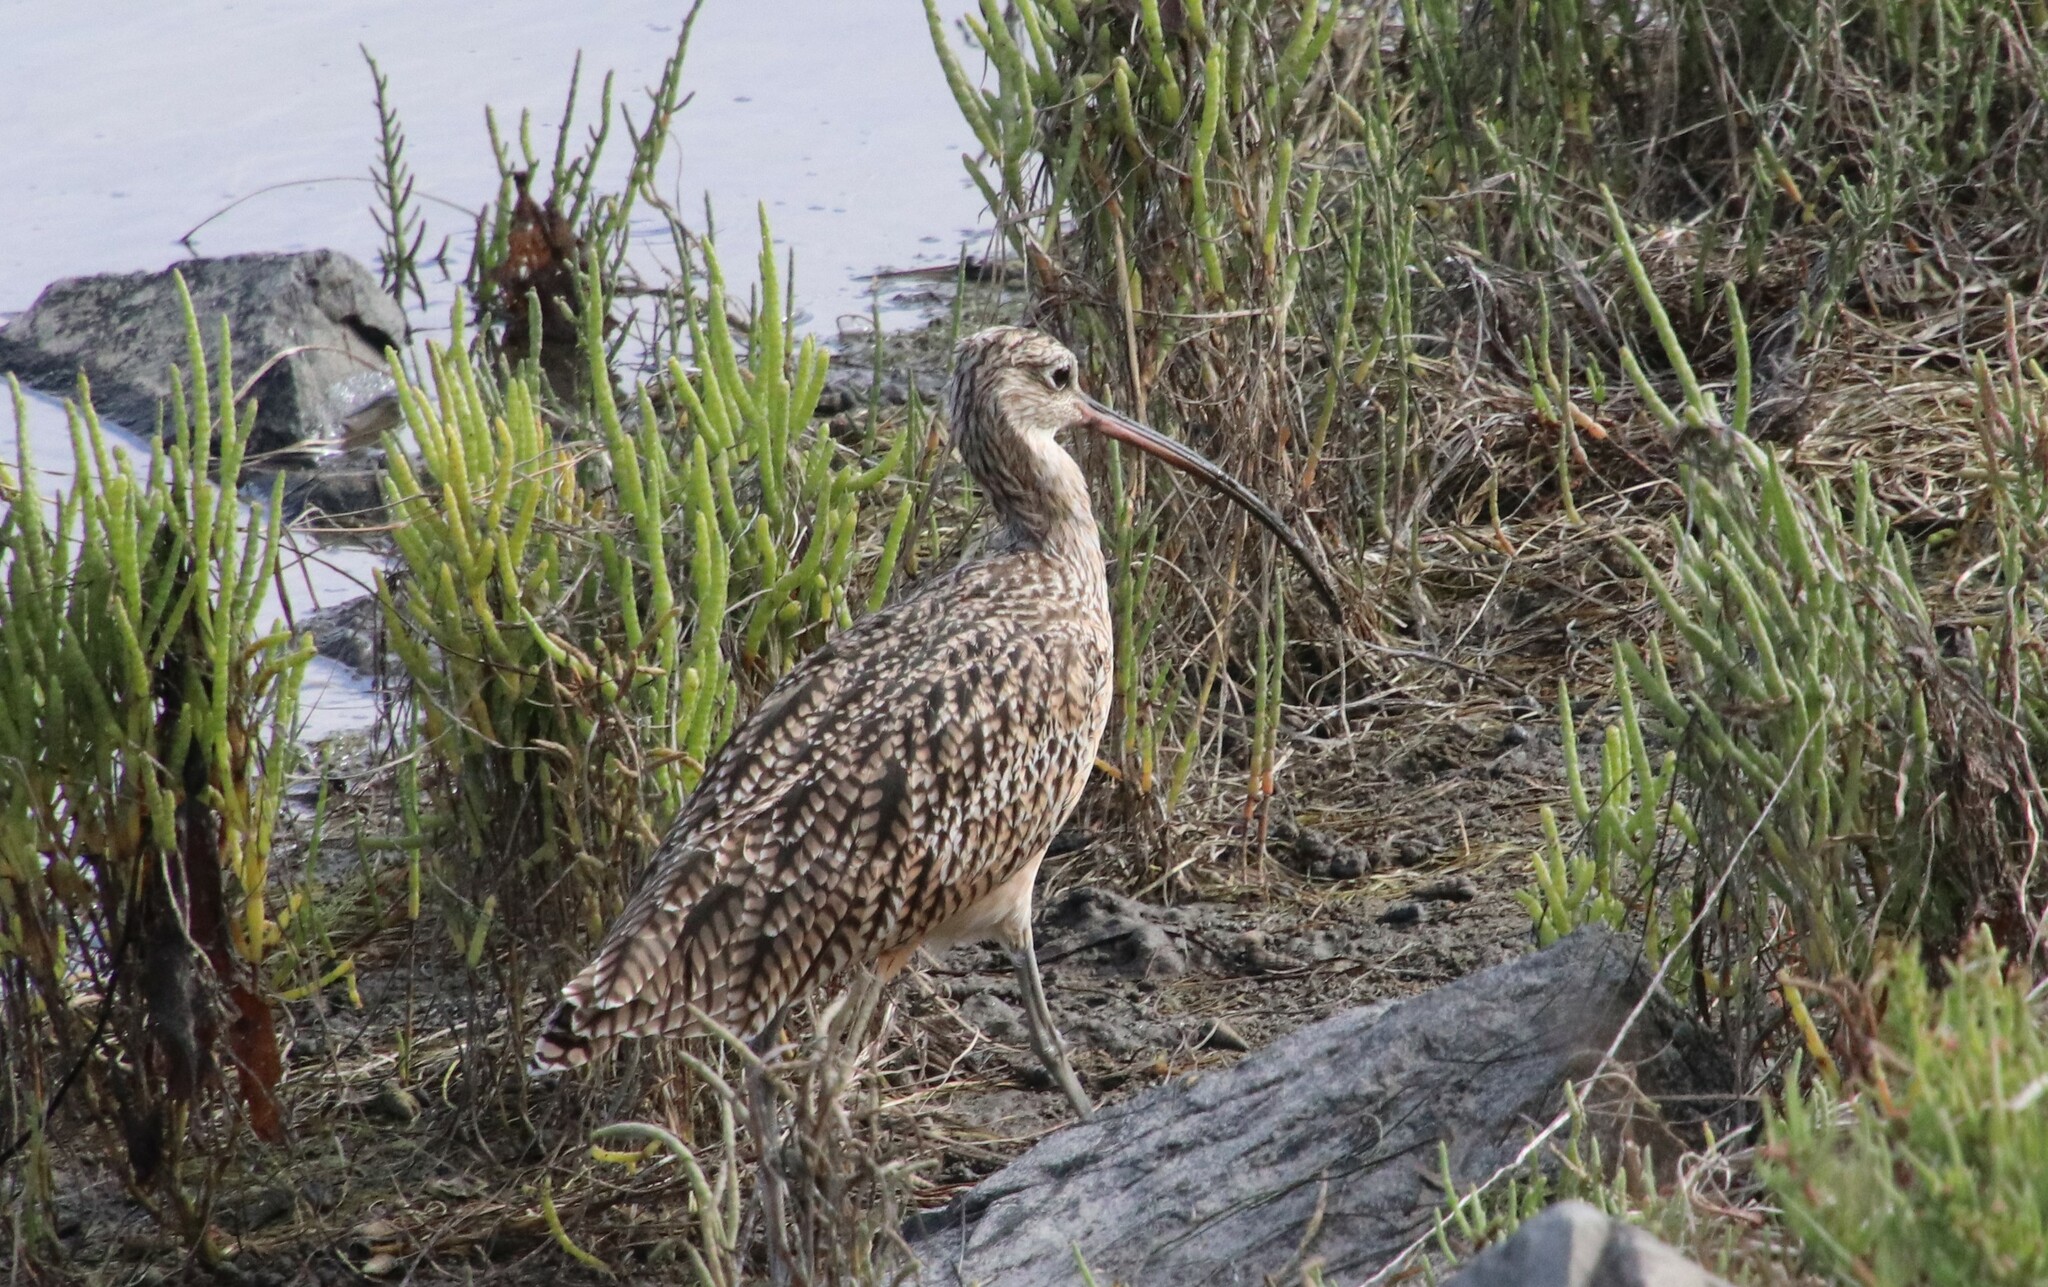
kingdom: Animalia
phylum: Chordata
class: Aves
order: Charadriiformes
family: Scolopacidae
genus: Numenius
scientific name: Numenius americanus
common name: Long-billed curlew
